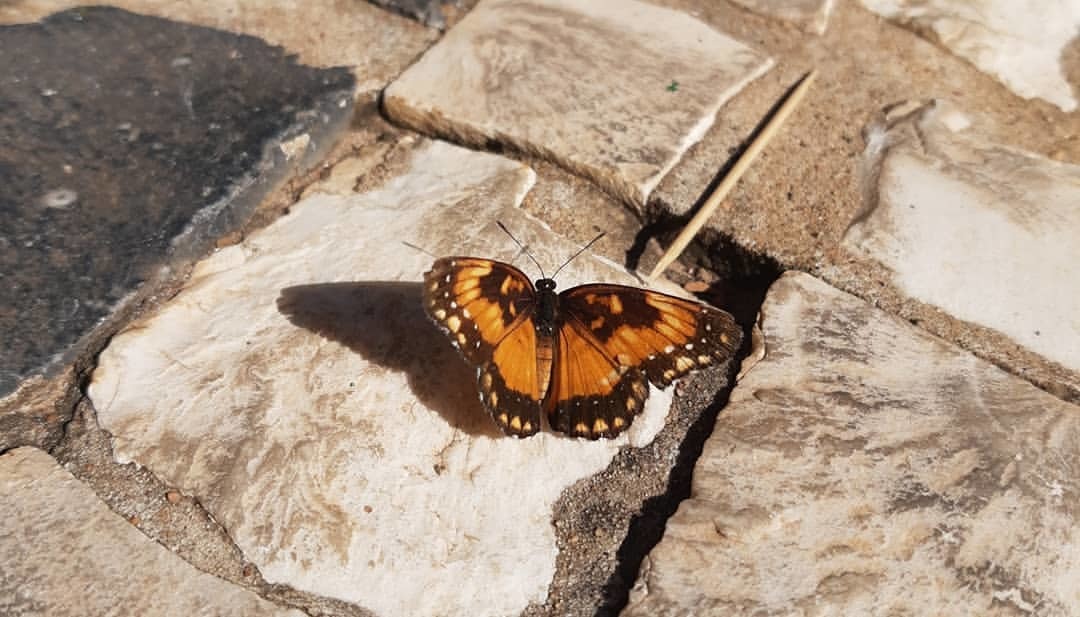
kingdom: Animalia
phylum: Arthropoda
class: Insecta
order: Lepidoptera
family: Nymphalidae
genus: Chlosyne
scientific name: Chlosyne lacinia
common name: Bordered patch
